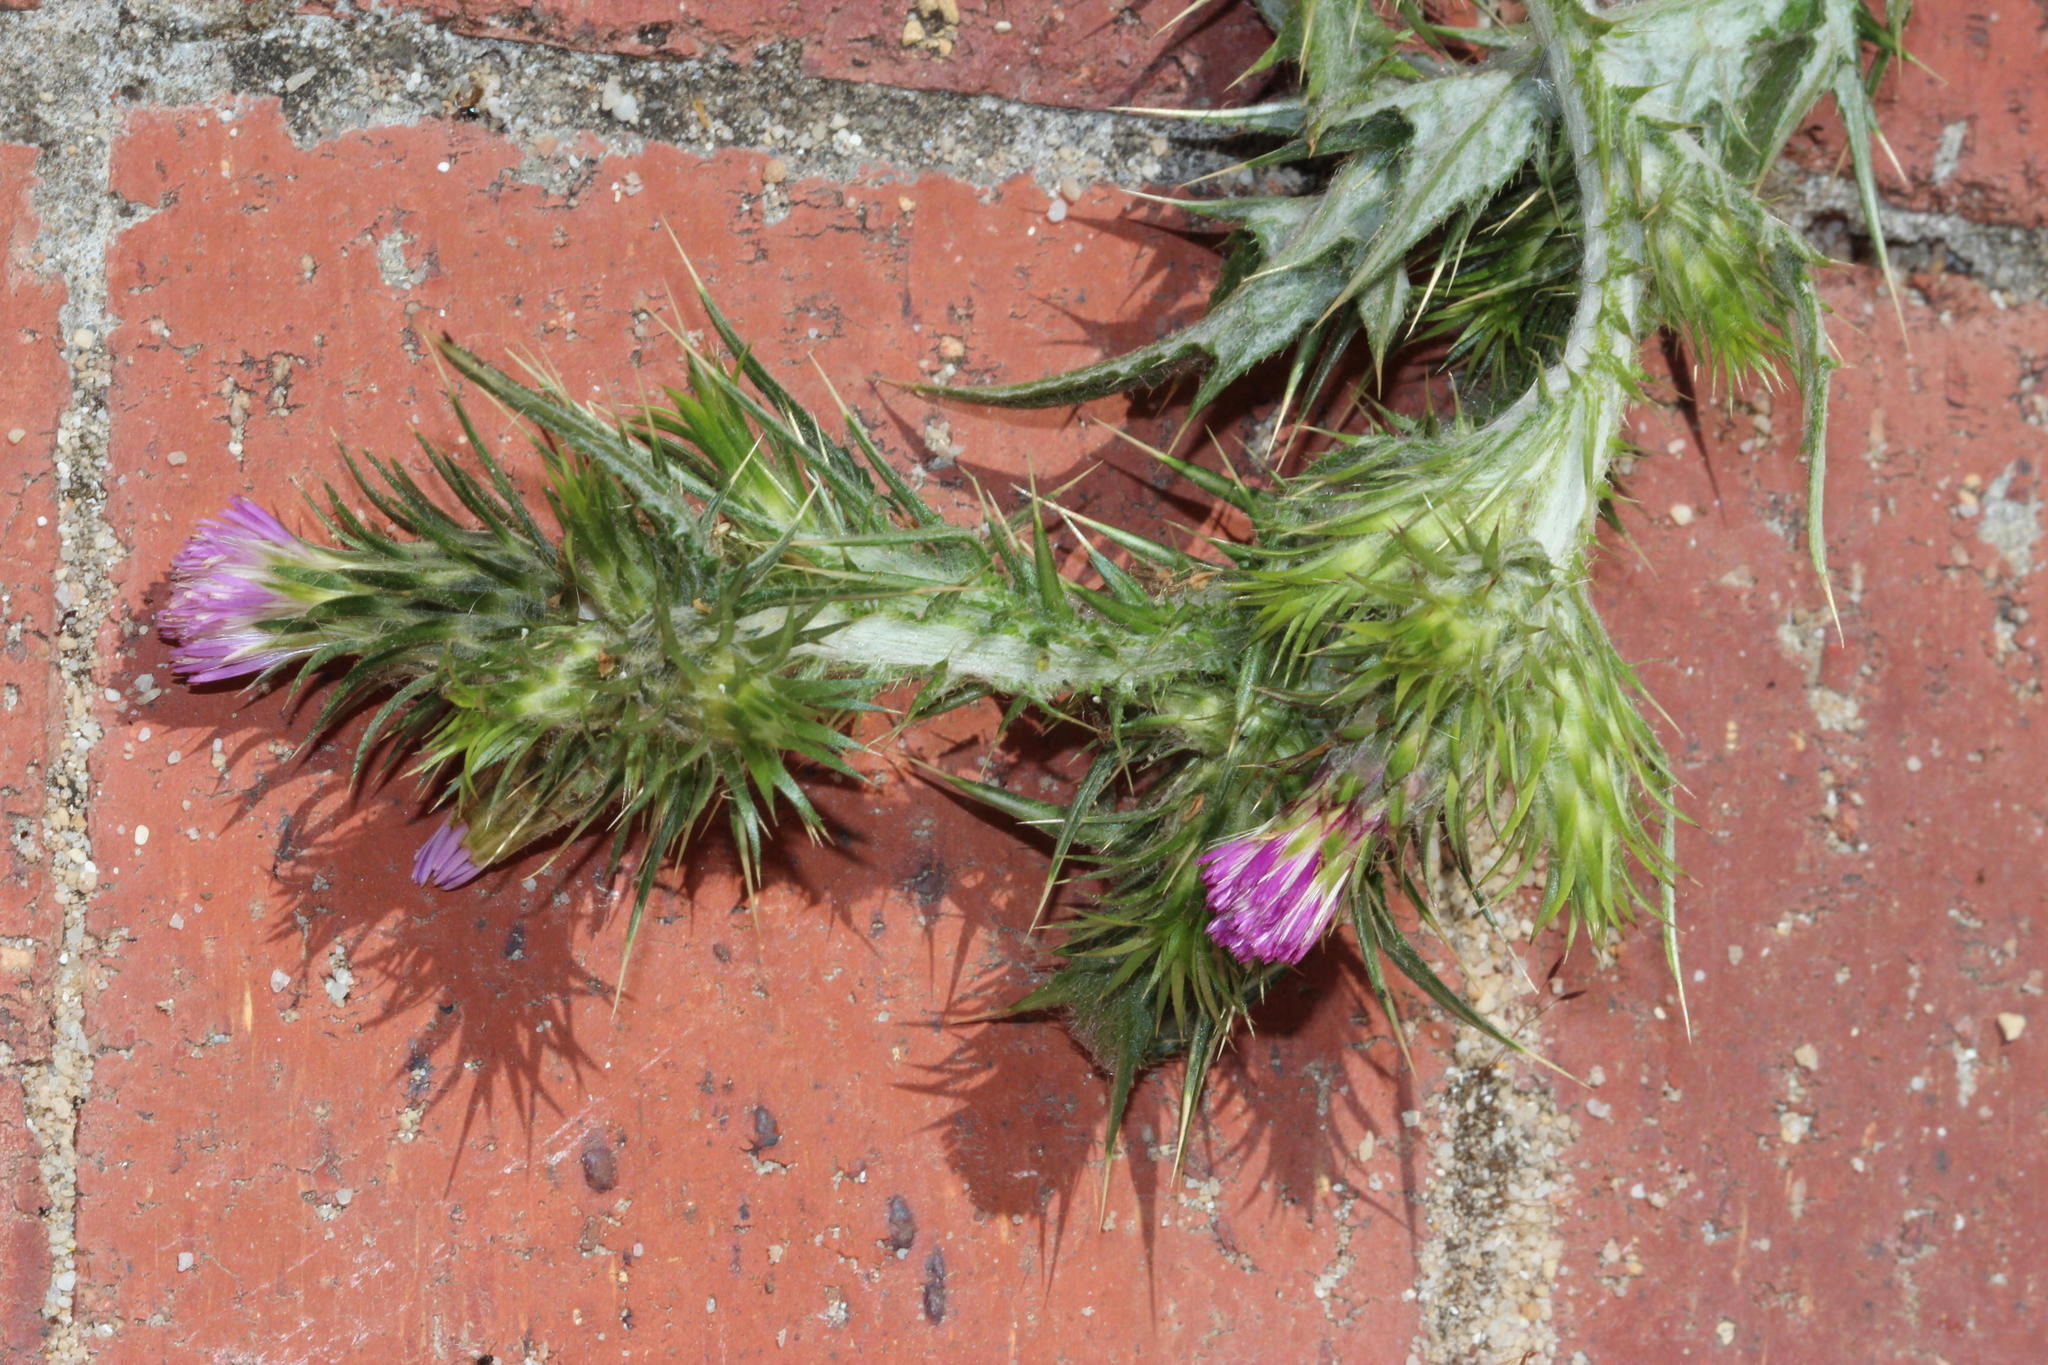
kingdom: Plantae
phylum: Tracheophyta
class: Magnoliopsida
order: Asterales
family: Asteraceae
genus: Carduus
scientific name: Carduus tenuiflorus
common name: Slender thistle
